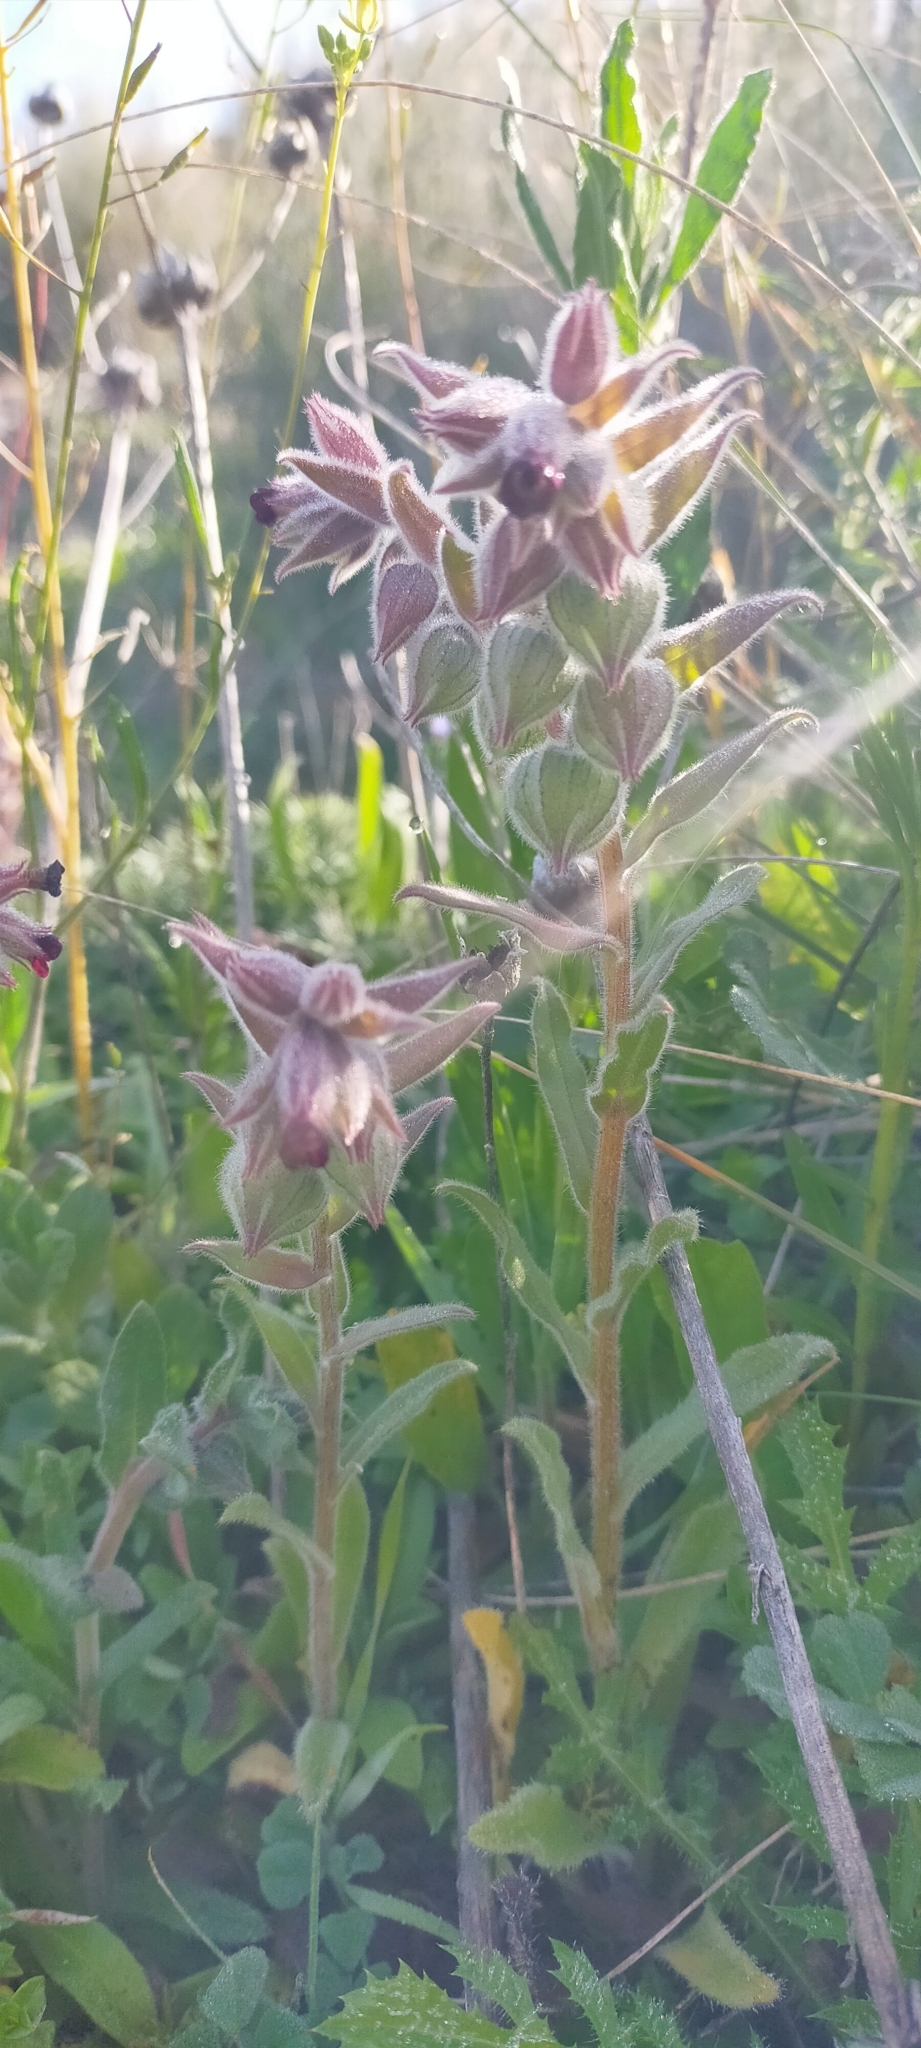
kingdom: Plantae
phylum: Tracheophyta
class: Magnoliopsida
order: Boraginales
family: Boraginaceae
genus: Nonea
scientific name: Nonea vesicaria
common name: Red monkswort
